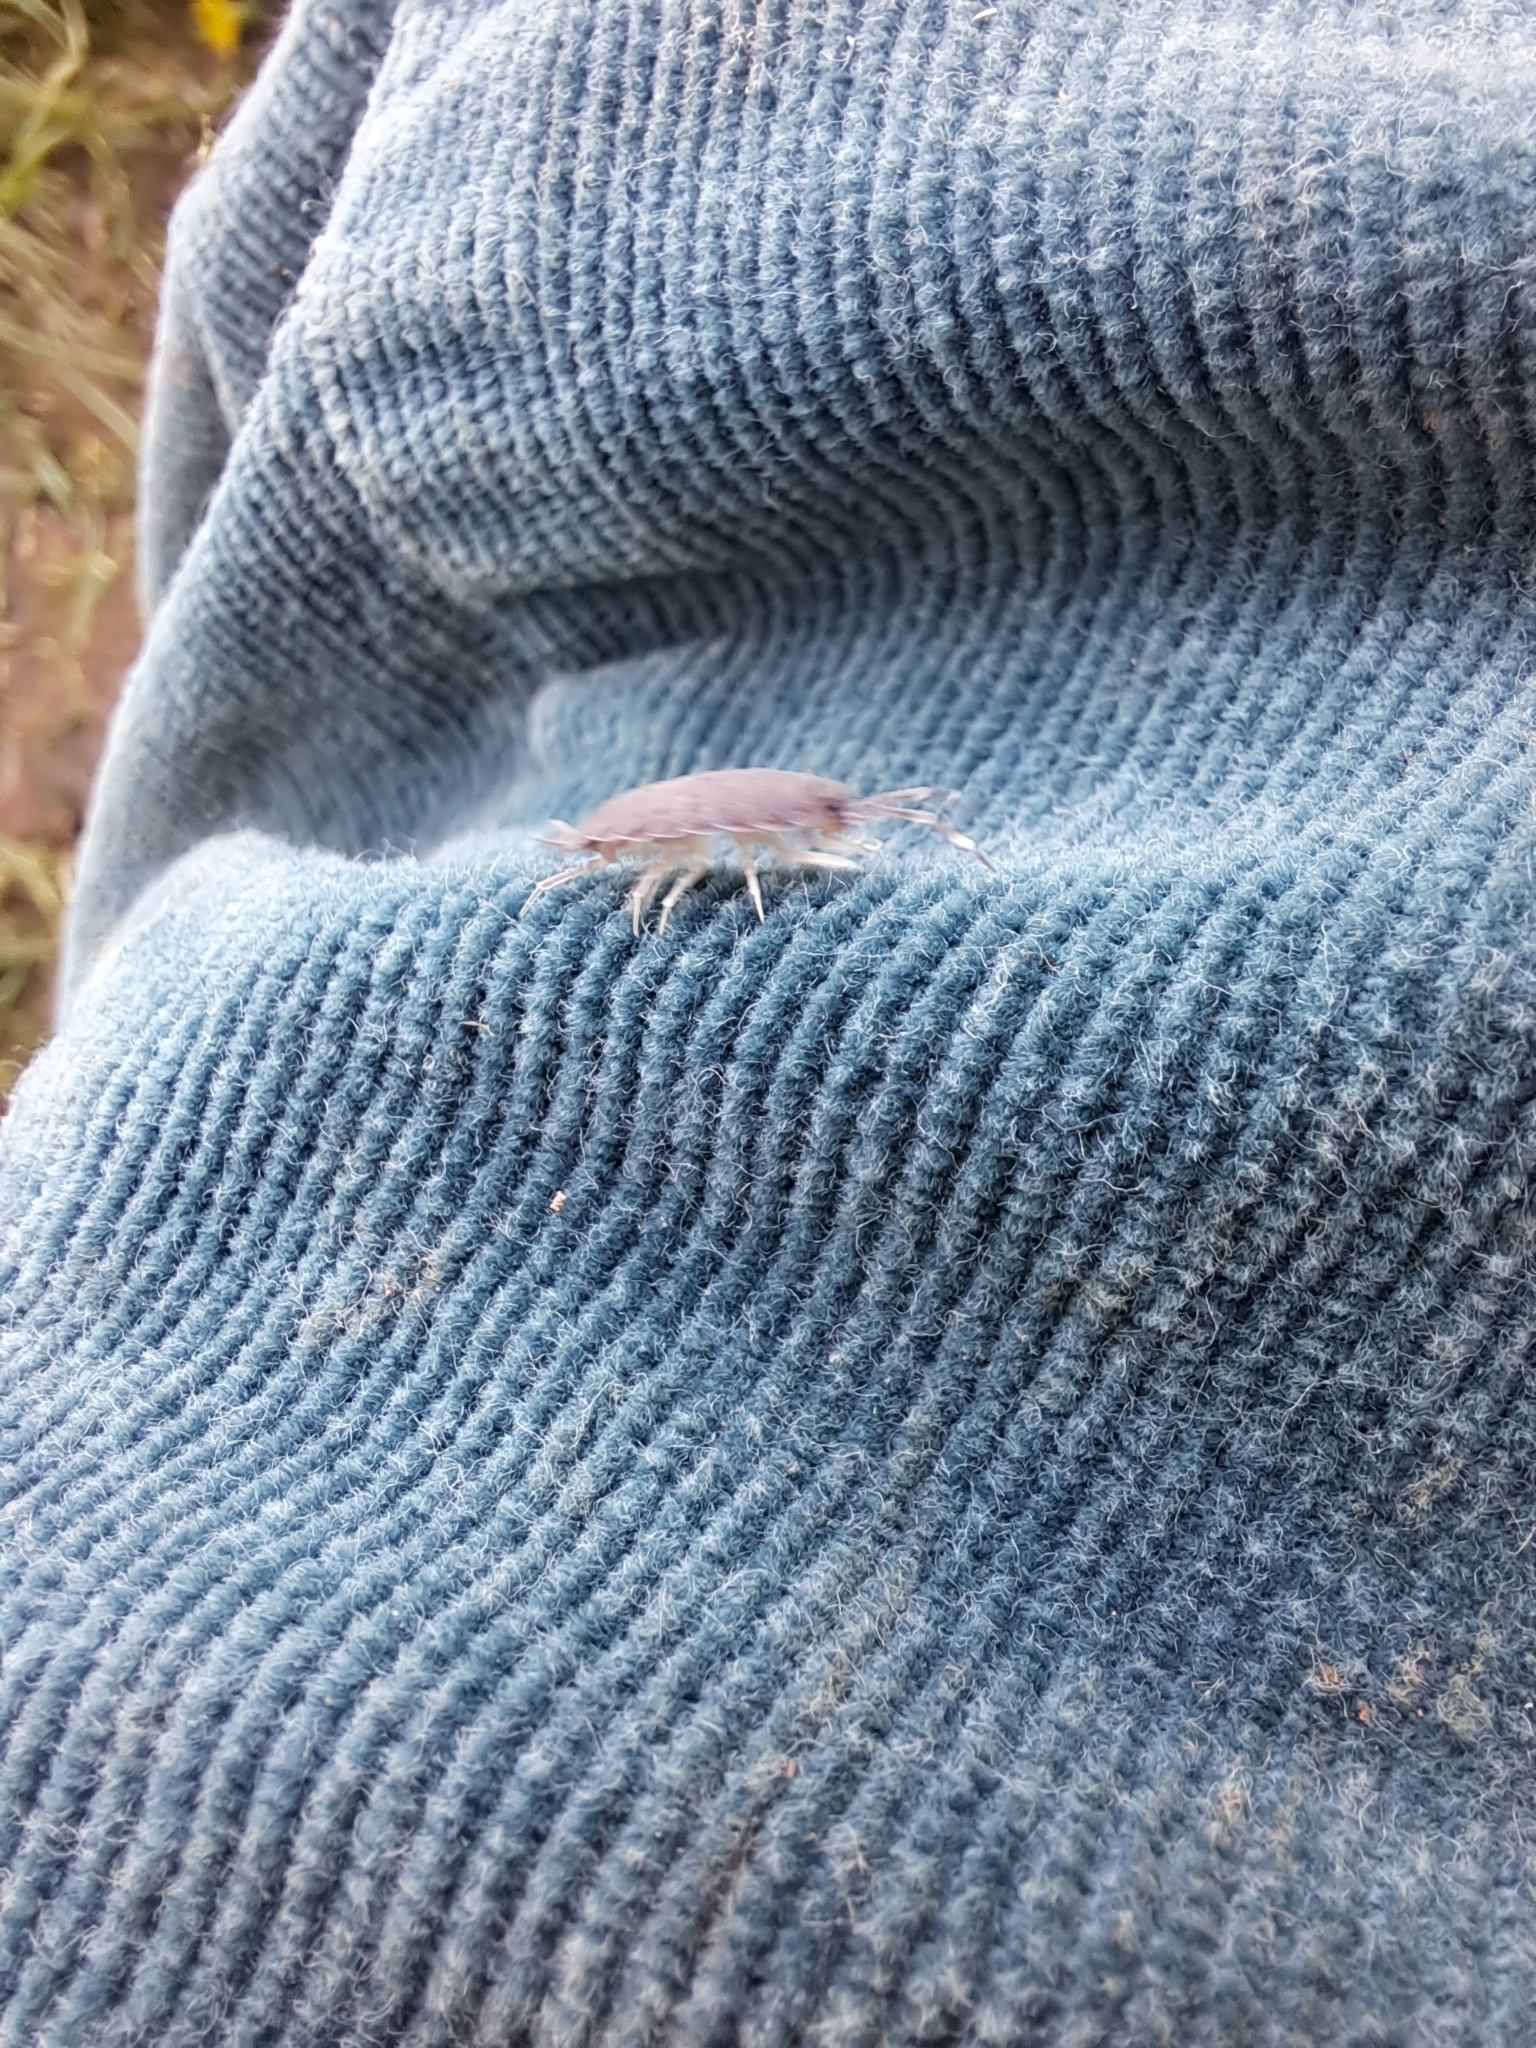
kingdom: Animalia
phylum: Arthropoda
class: Malacostraca
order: Isopoda
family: Porcellionidae
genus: Porcellionides
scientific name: Porcellionides
